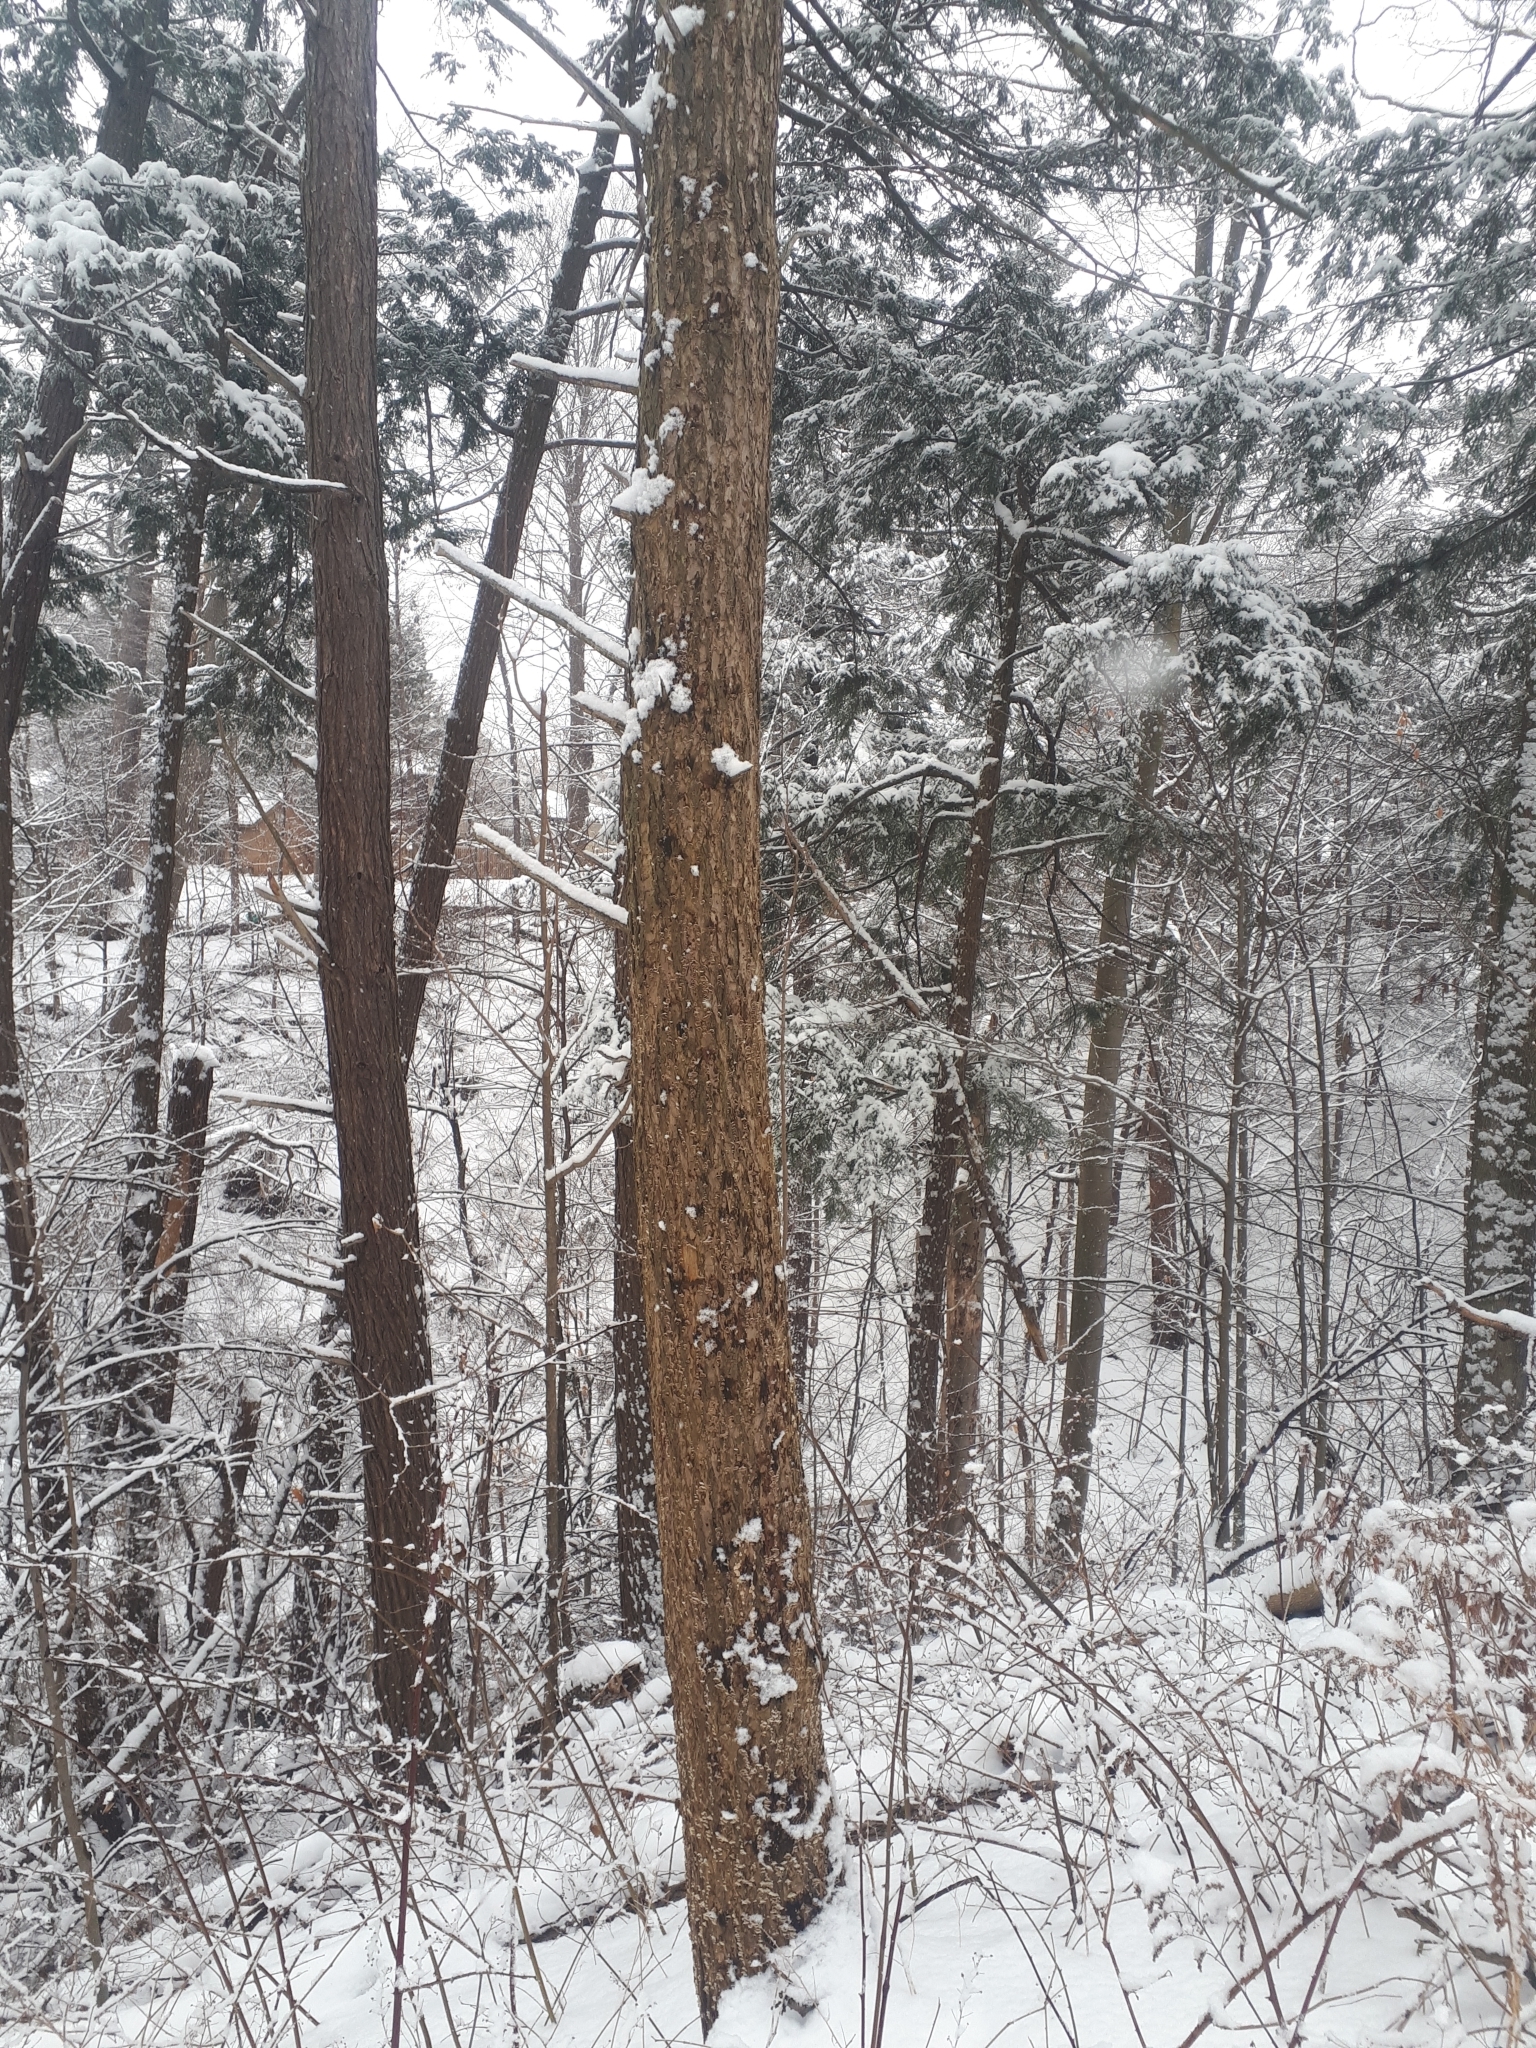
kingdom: Plantae
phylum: Tracheophyta
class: Pinopsida
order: Pinales
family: Pinaceae
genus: Tsuga
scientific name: Tsuga canadensis
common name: Eastern hemlock
